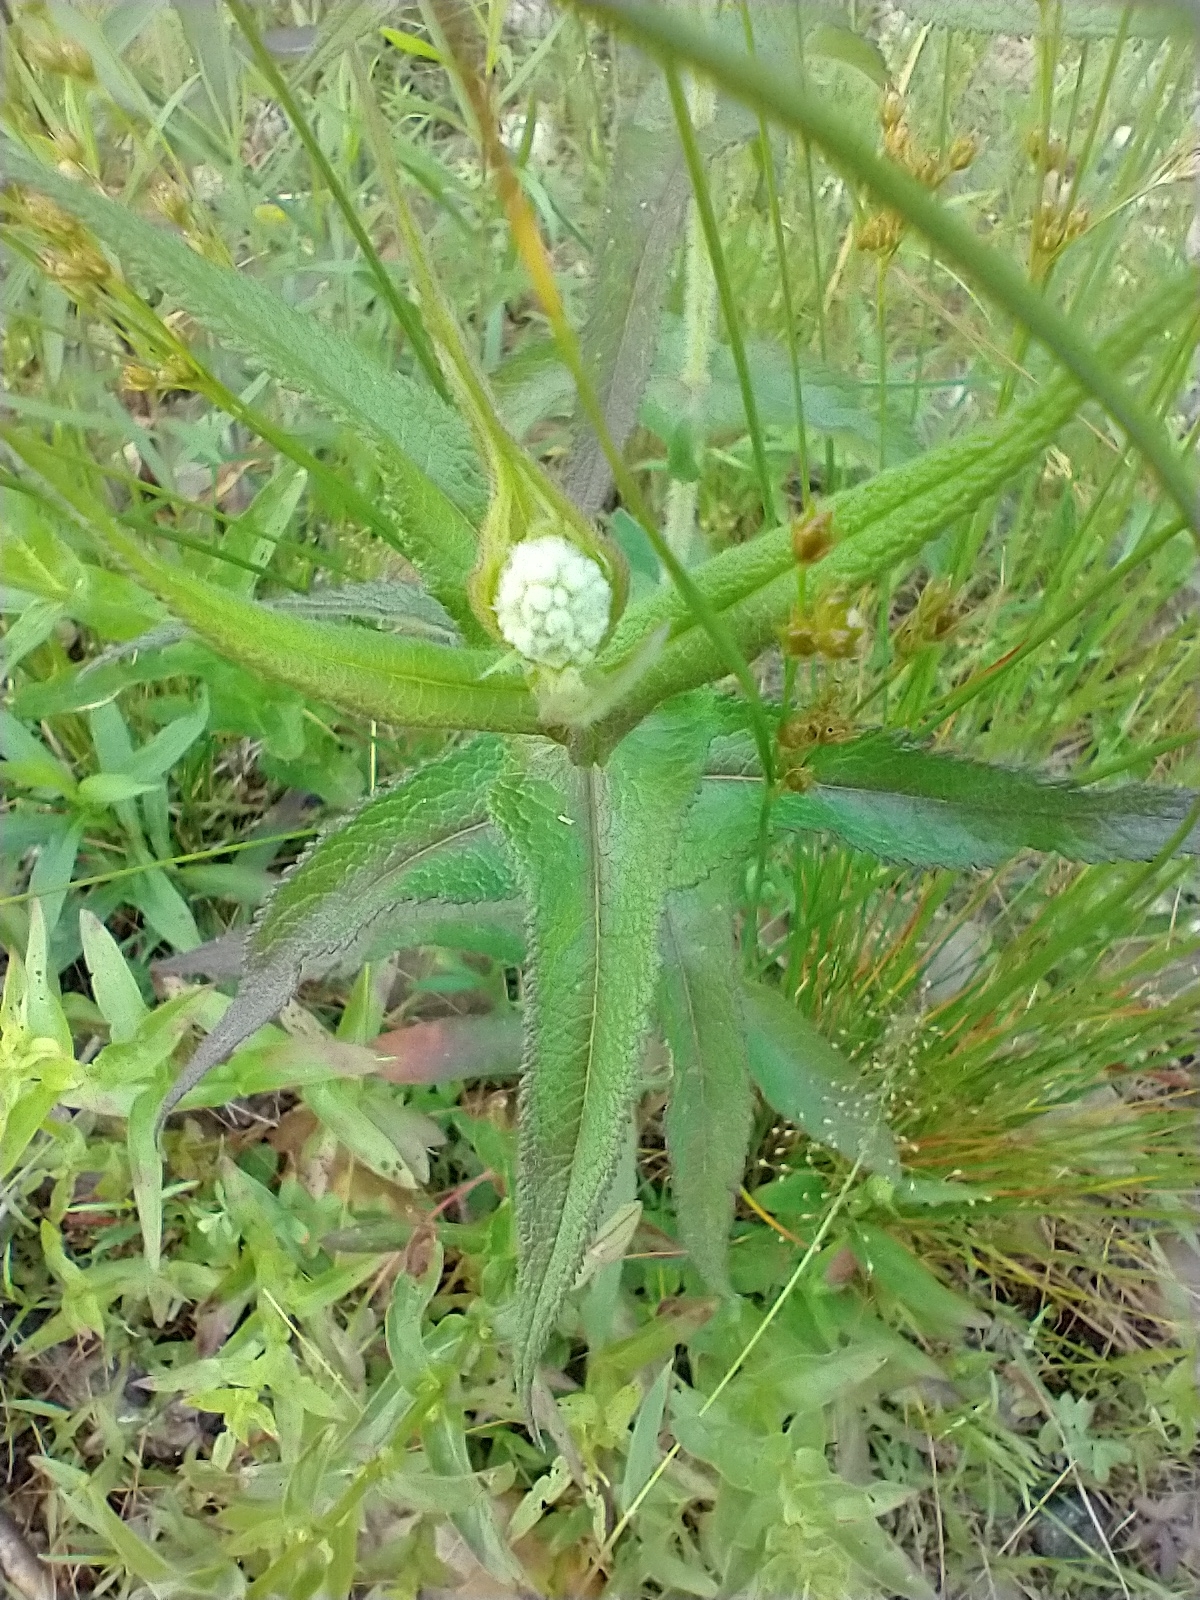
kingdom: Plantae
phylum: Tracheophyta
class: Magnoliopsida
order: Asterales
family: Asteraceae
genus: Eupatorium
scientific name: Eupatorium perfoliatum
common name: Boneset
